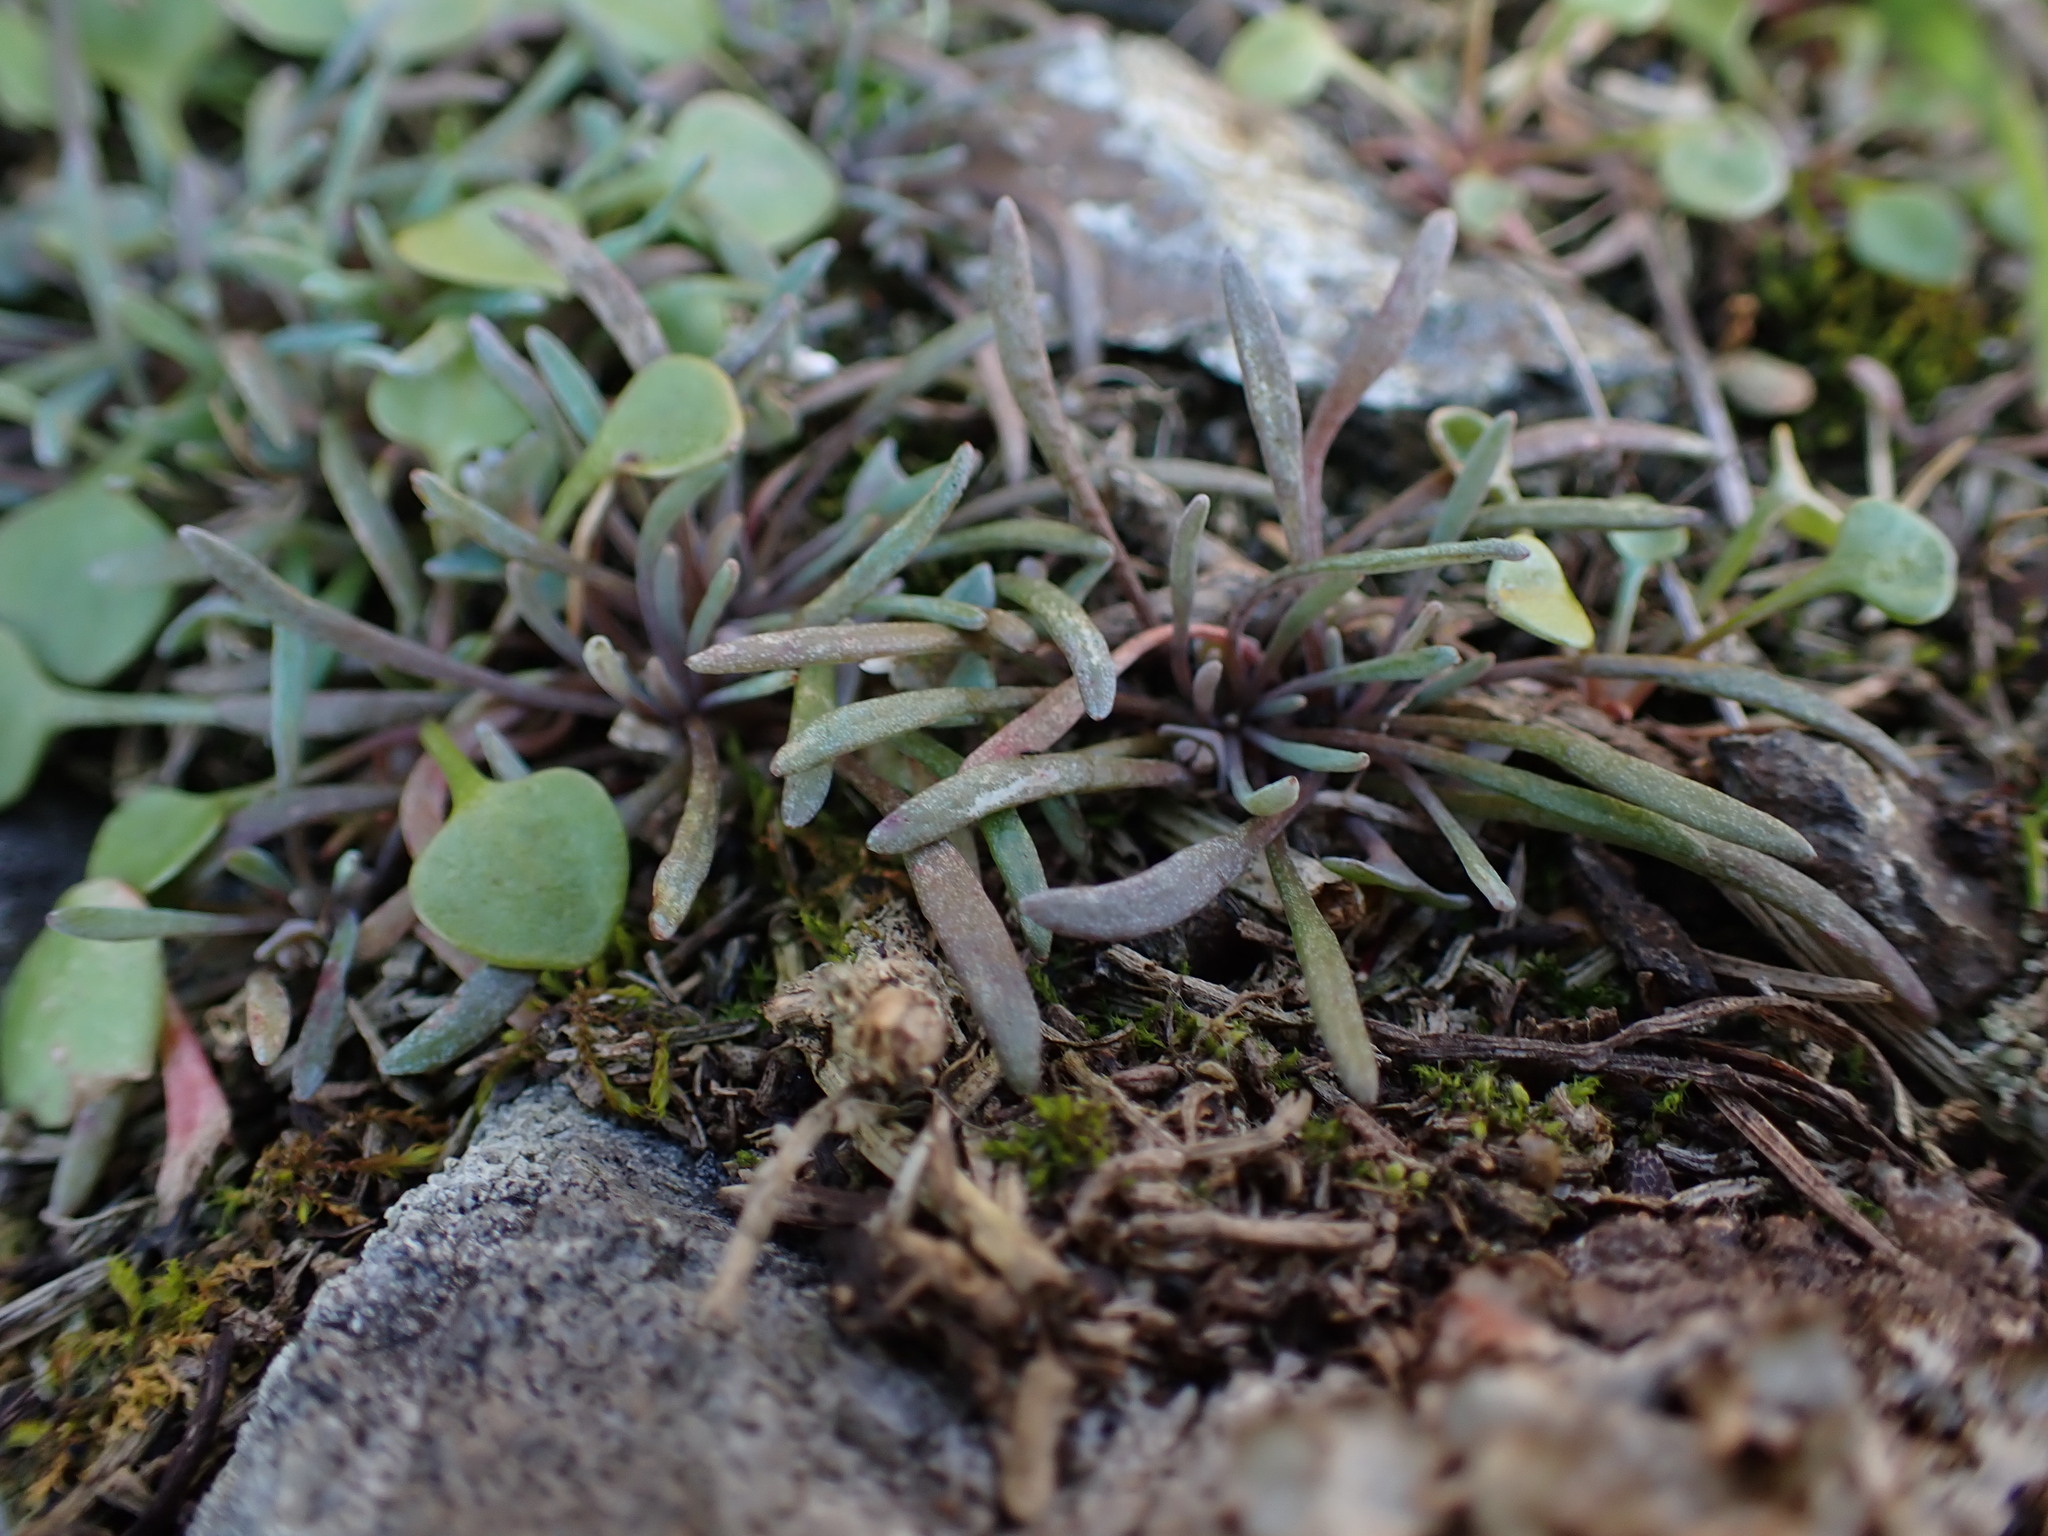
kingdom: Plantae
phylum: Tracheophyta
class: Magnoliopsida
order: Caryophyllales
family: Montiaceae
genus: Claytonia
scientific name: Claytonia exigua
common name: Pale spring beauty
